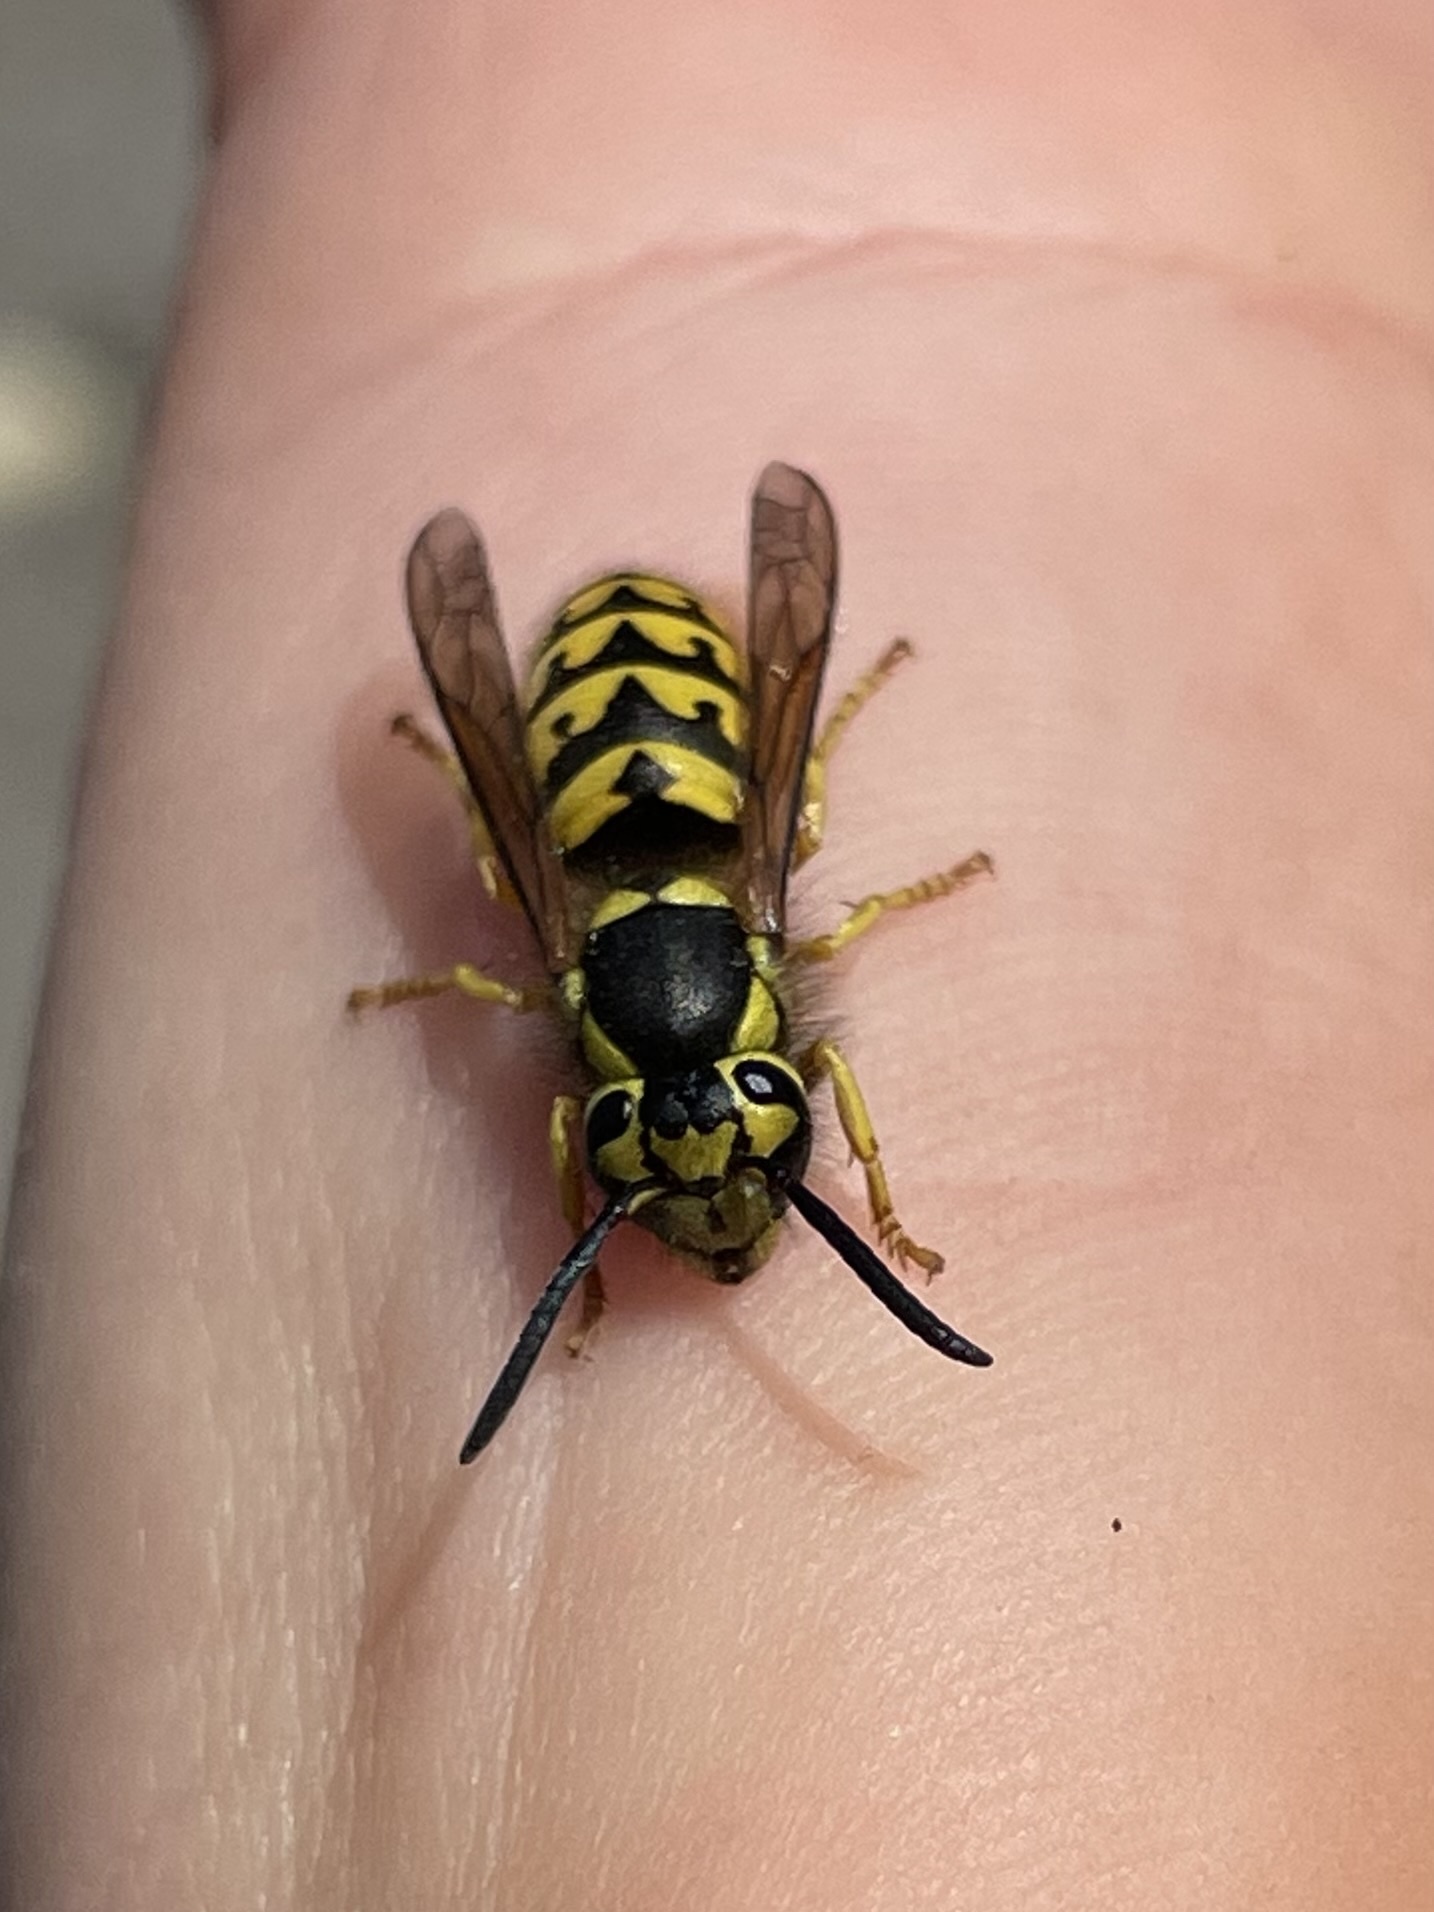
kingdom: Animalia
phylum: Arthropoda
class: Insecta
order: Hymenoptera
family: Vespidae
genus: Vespula
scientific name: Vespula pensylvanica
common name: Western yellowjacket
